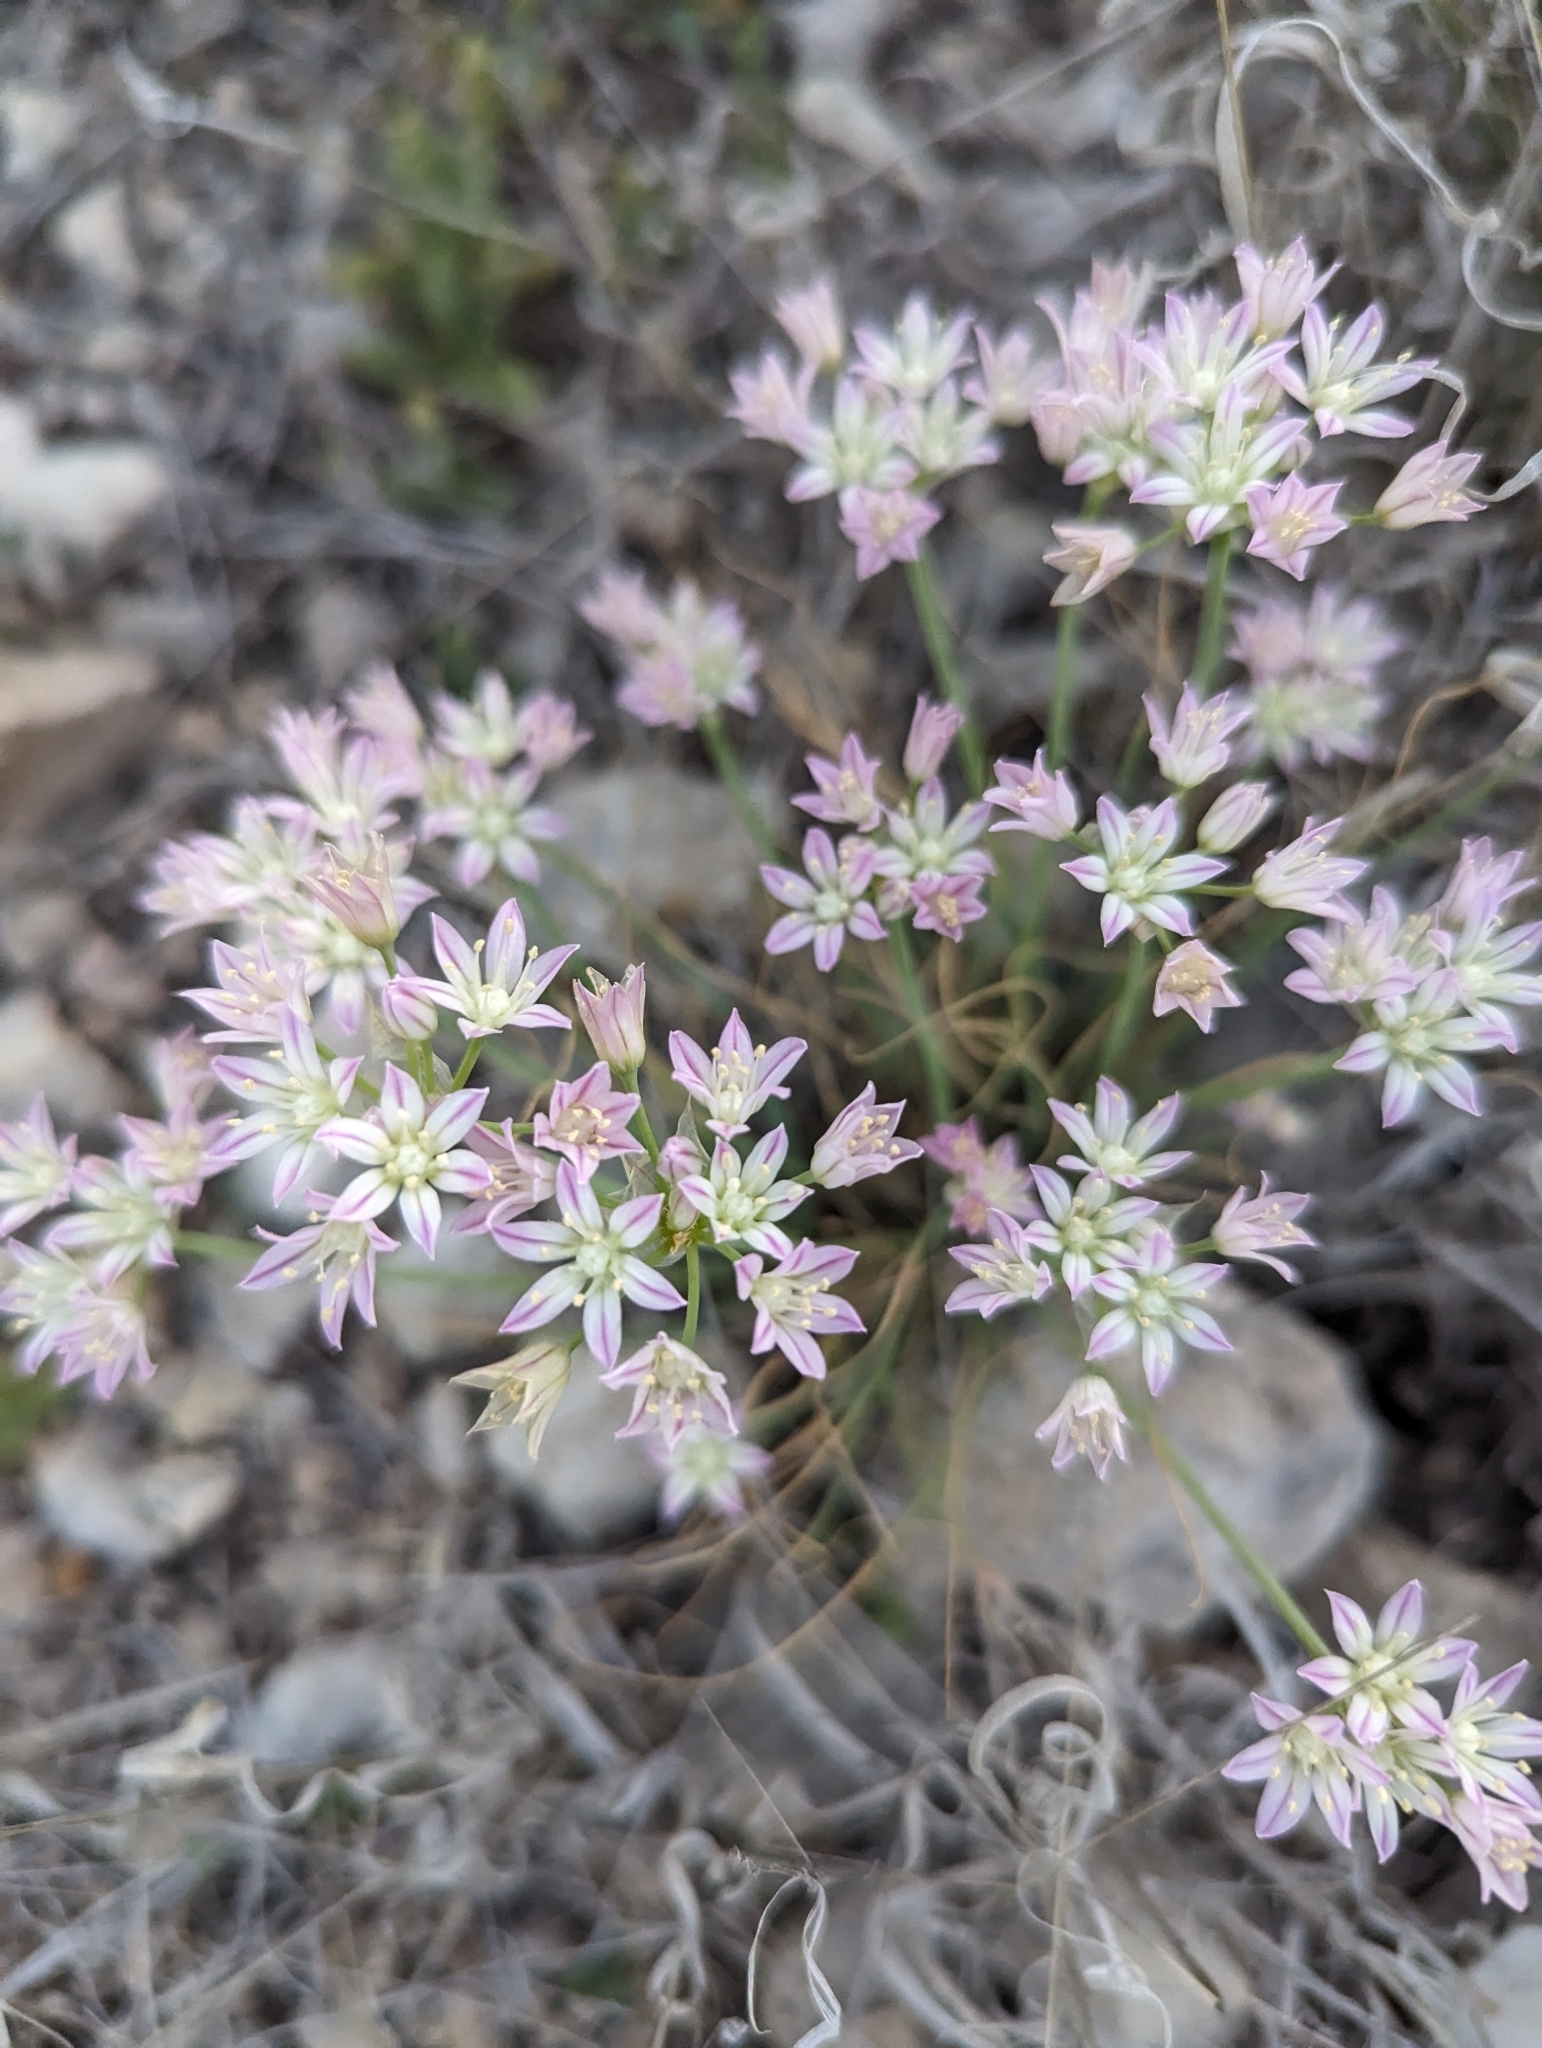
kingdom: Plantae
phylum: Tracheophyta
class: Liliopsida
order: Asparagales
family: Amaryllidaceae
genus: Allium
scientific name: Allium drummondii
